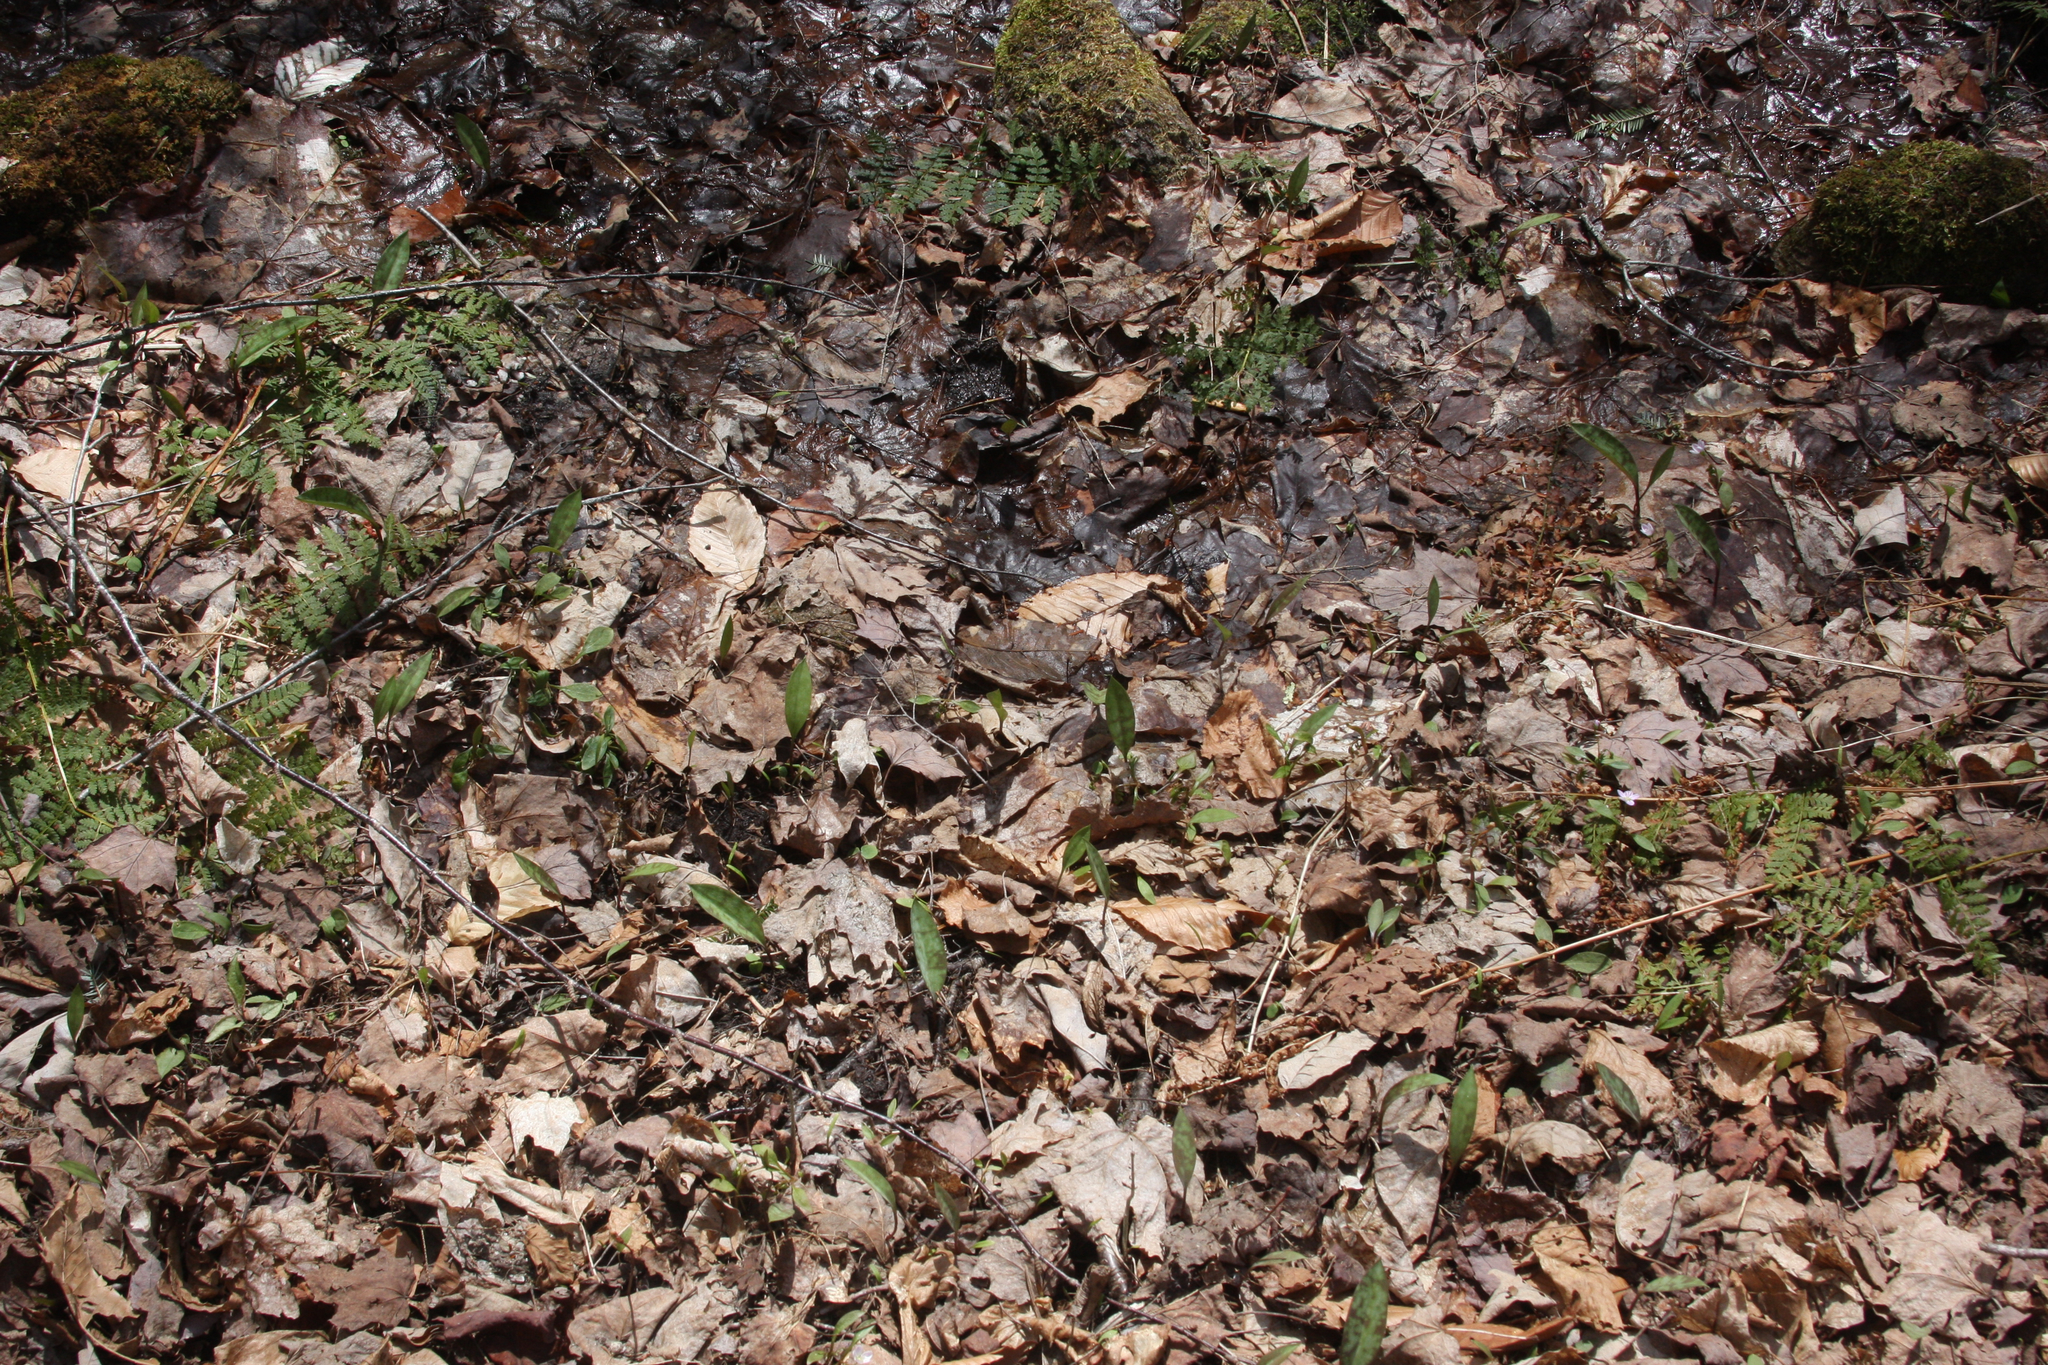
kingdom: Plantae
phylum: Tracheophyta
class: Liliopsida
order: Liliales
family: Liliaceae
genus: Erythronium
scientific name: Erythronium americanum
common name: Yellow adder's-tongue
